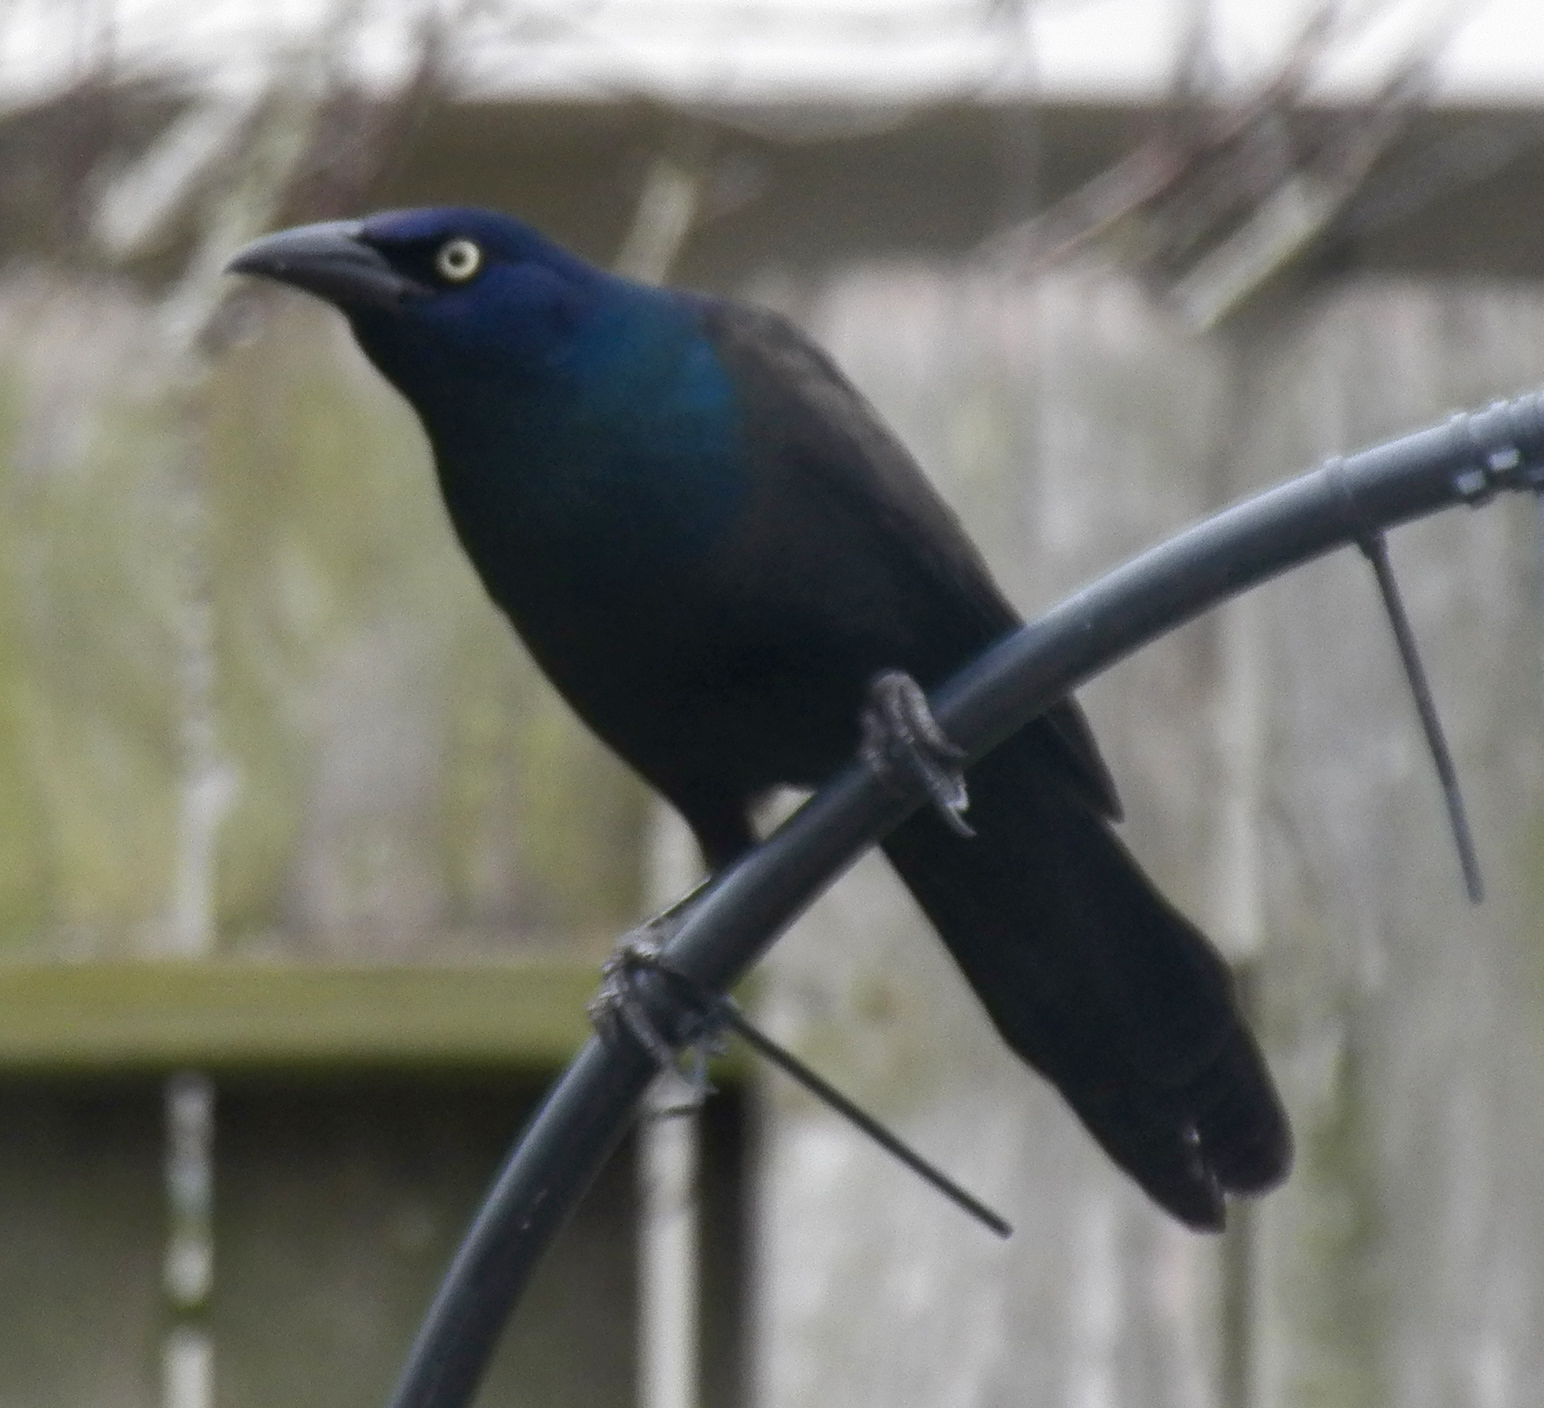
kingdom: Animalia
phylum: Chordata
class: Aves
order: Passeriformes
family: Icteridae
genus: Quiscalus
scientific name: Quiscalus mexicanus
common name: Great-tailed grackle
